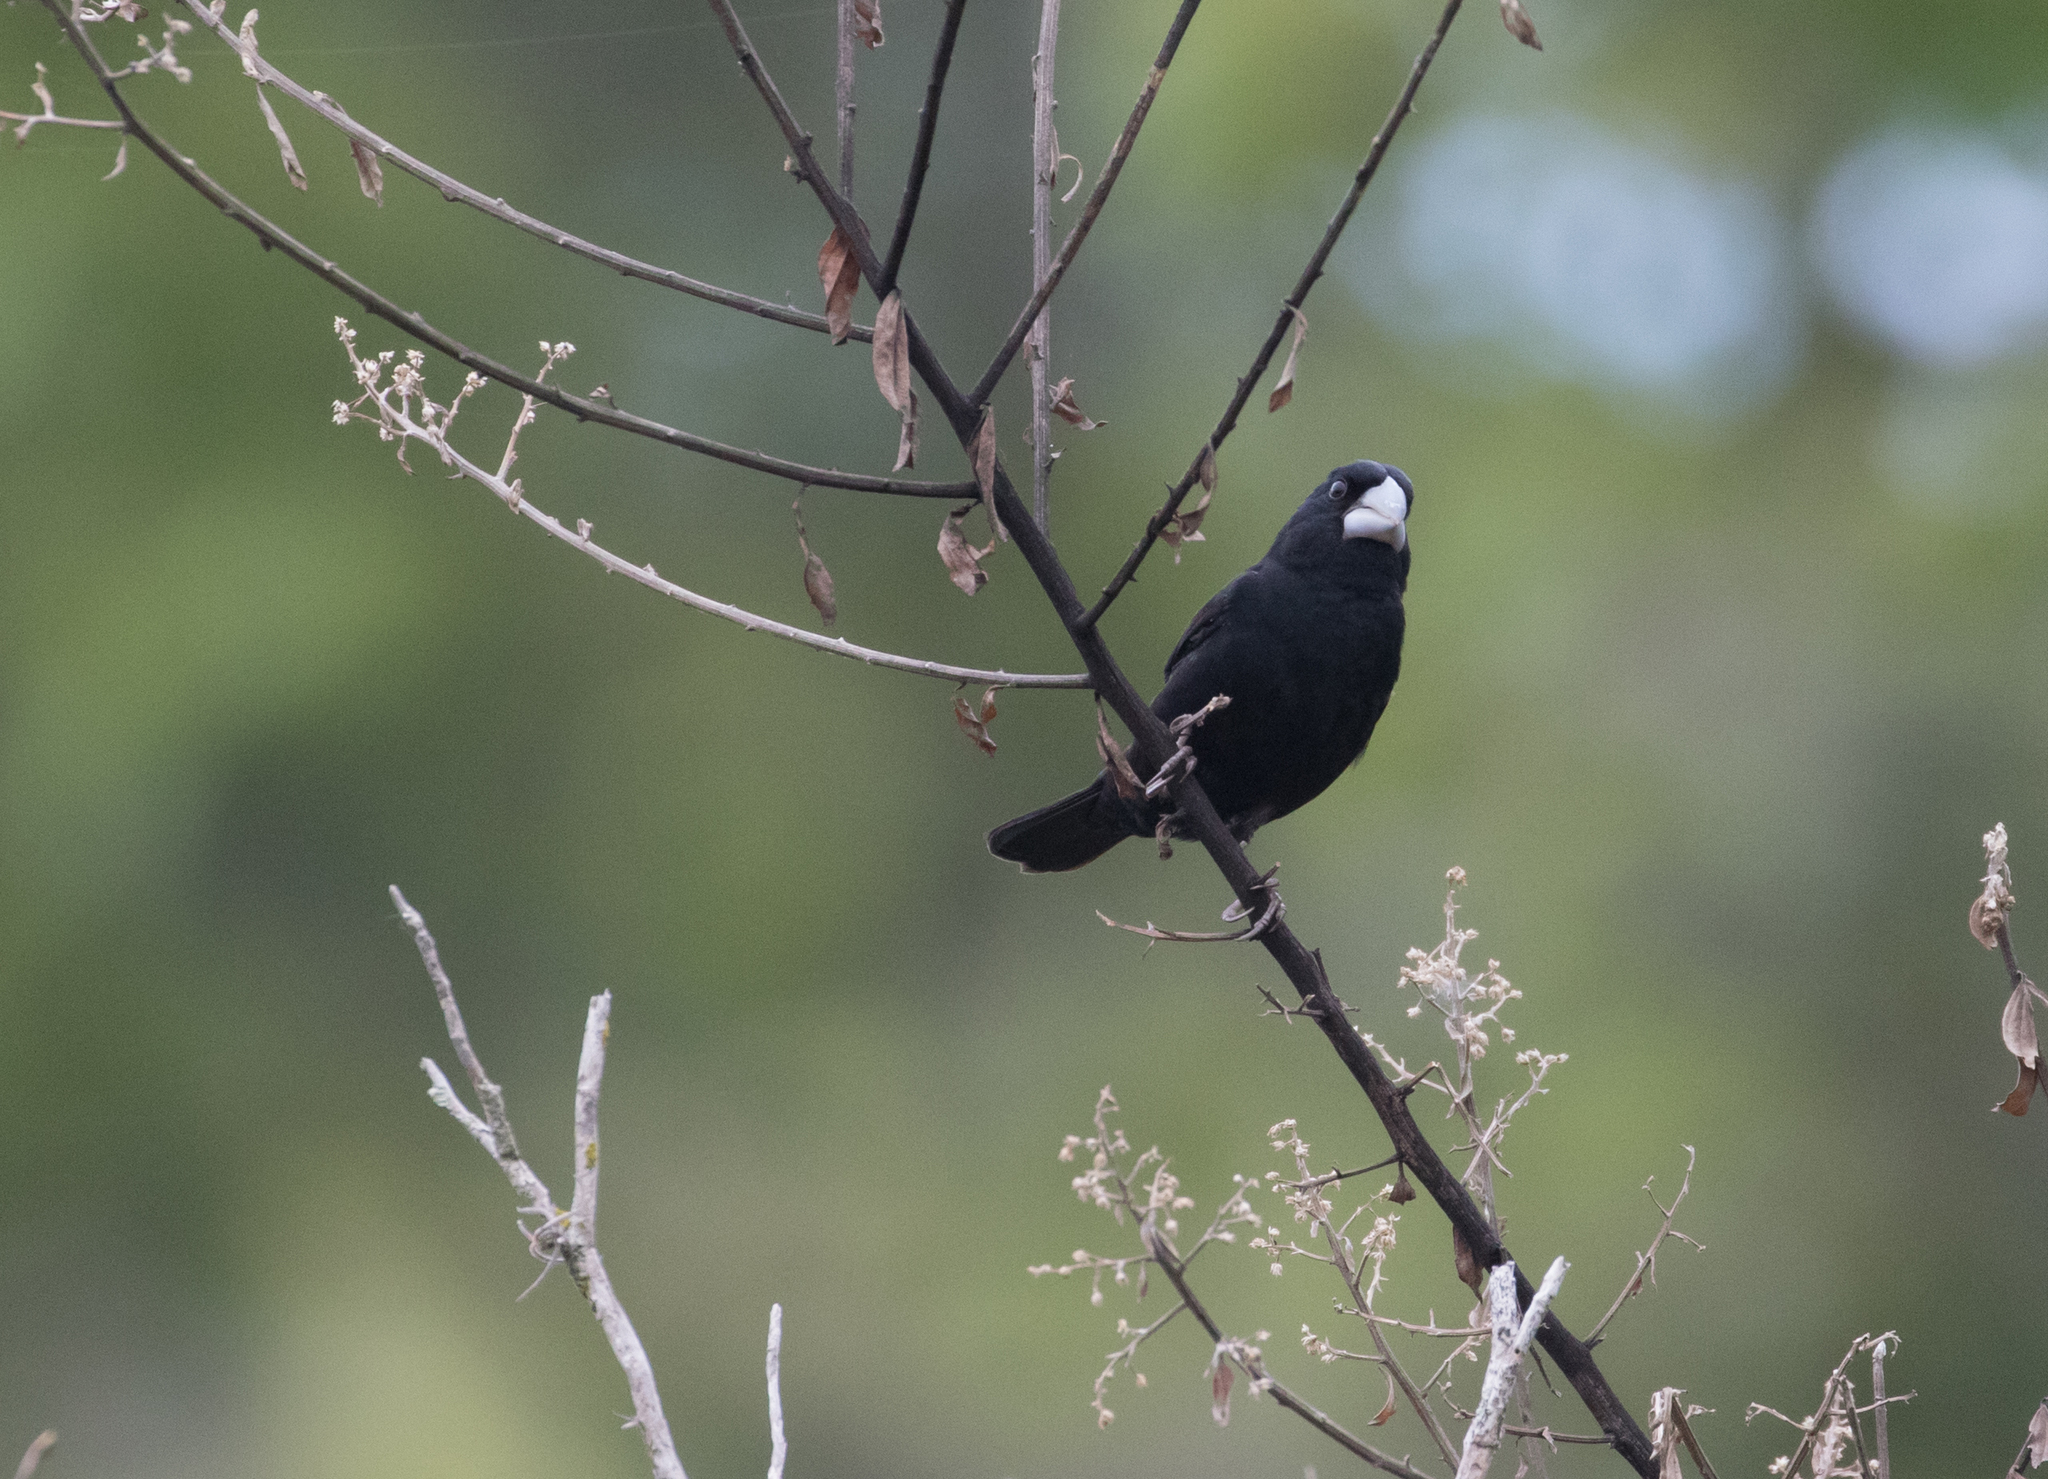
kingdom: Animalia
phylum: Chordata
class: Aves
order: Passeriformes
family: Thraupidae
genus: Sporophila
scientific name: Sporophila crassirostris
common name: Large-billed seed-finch
